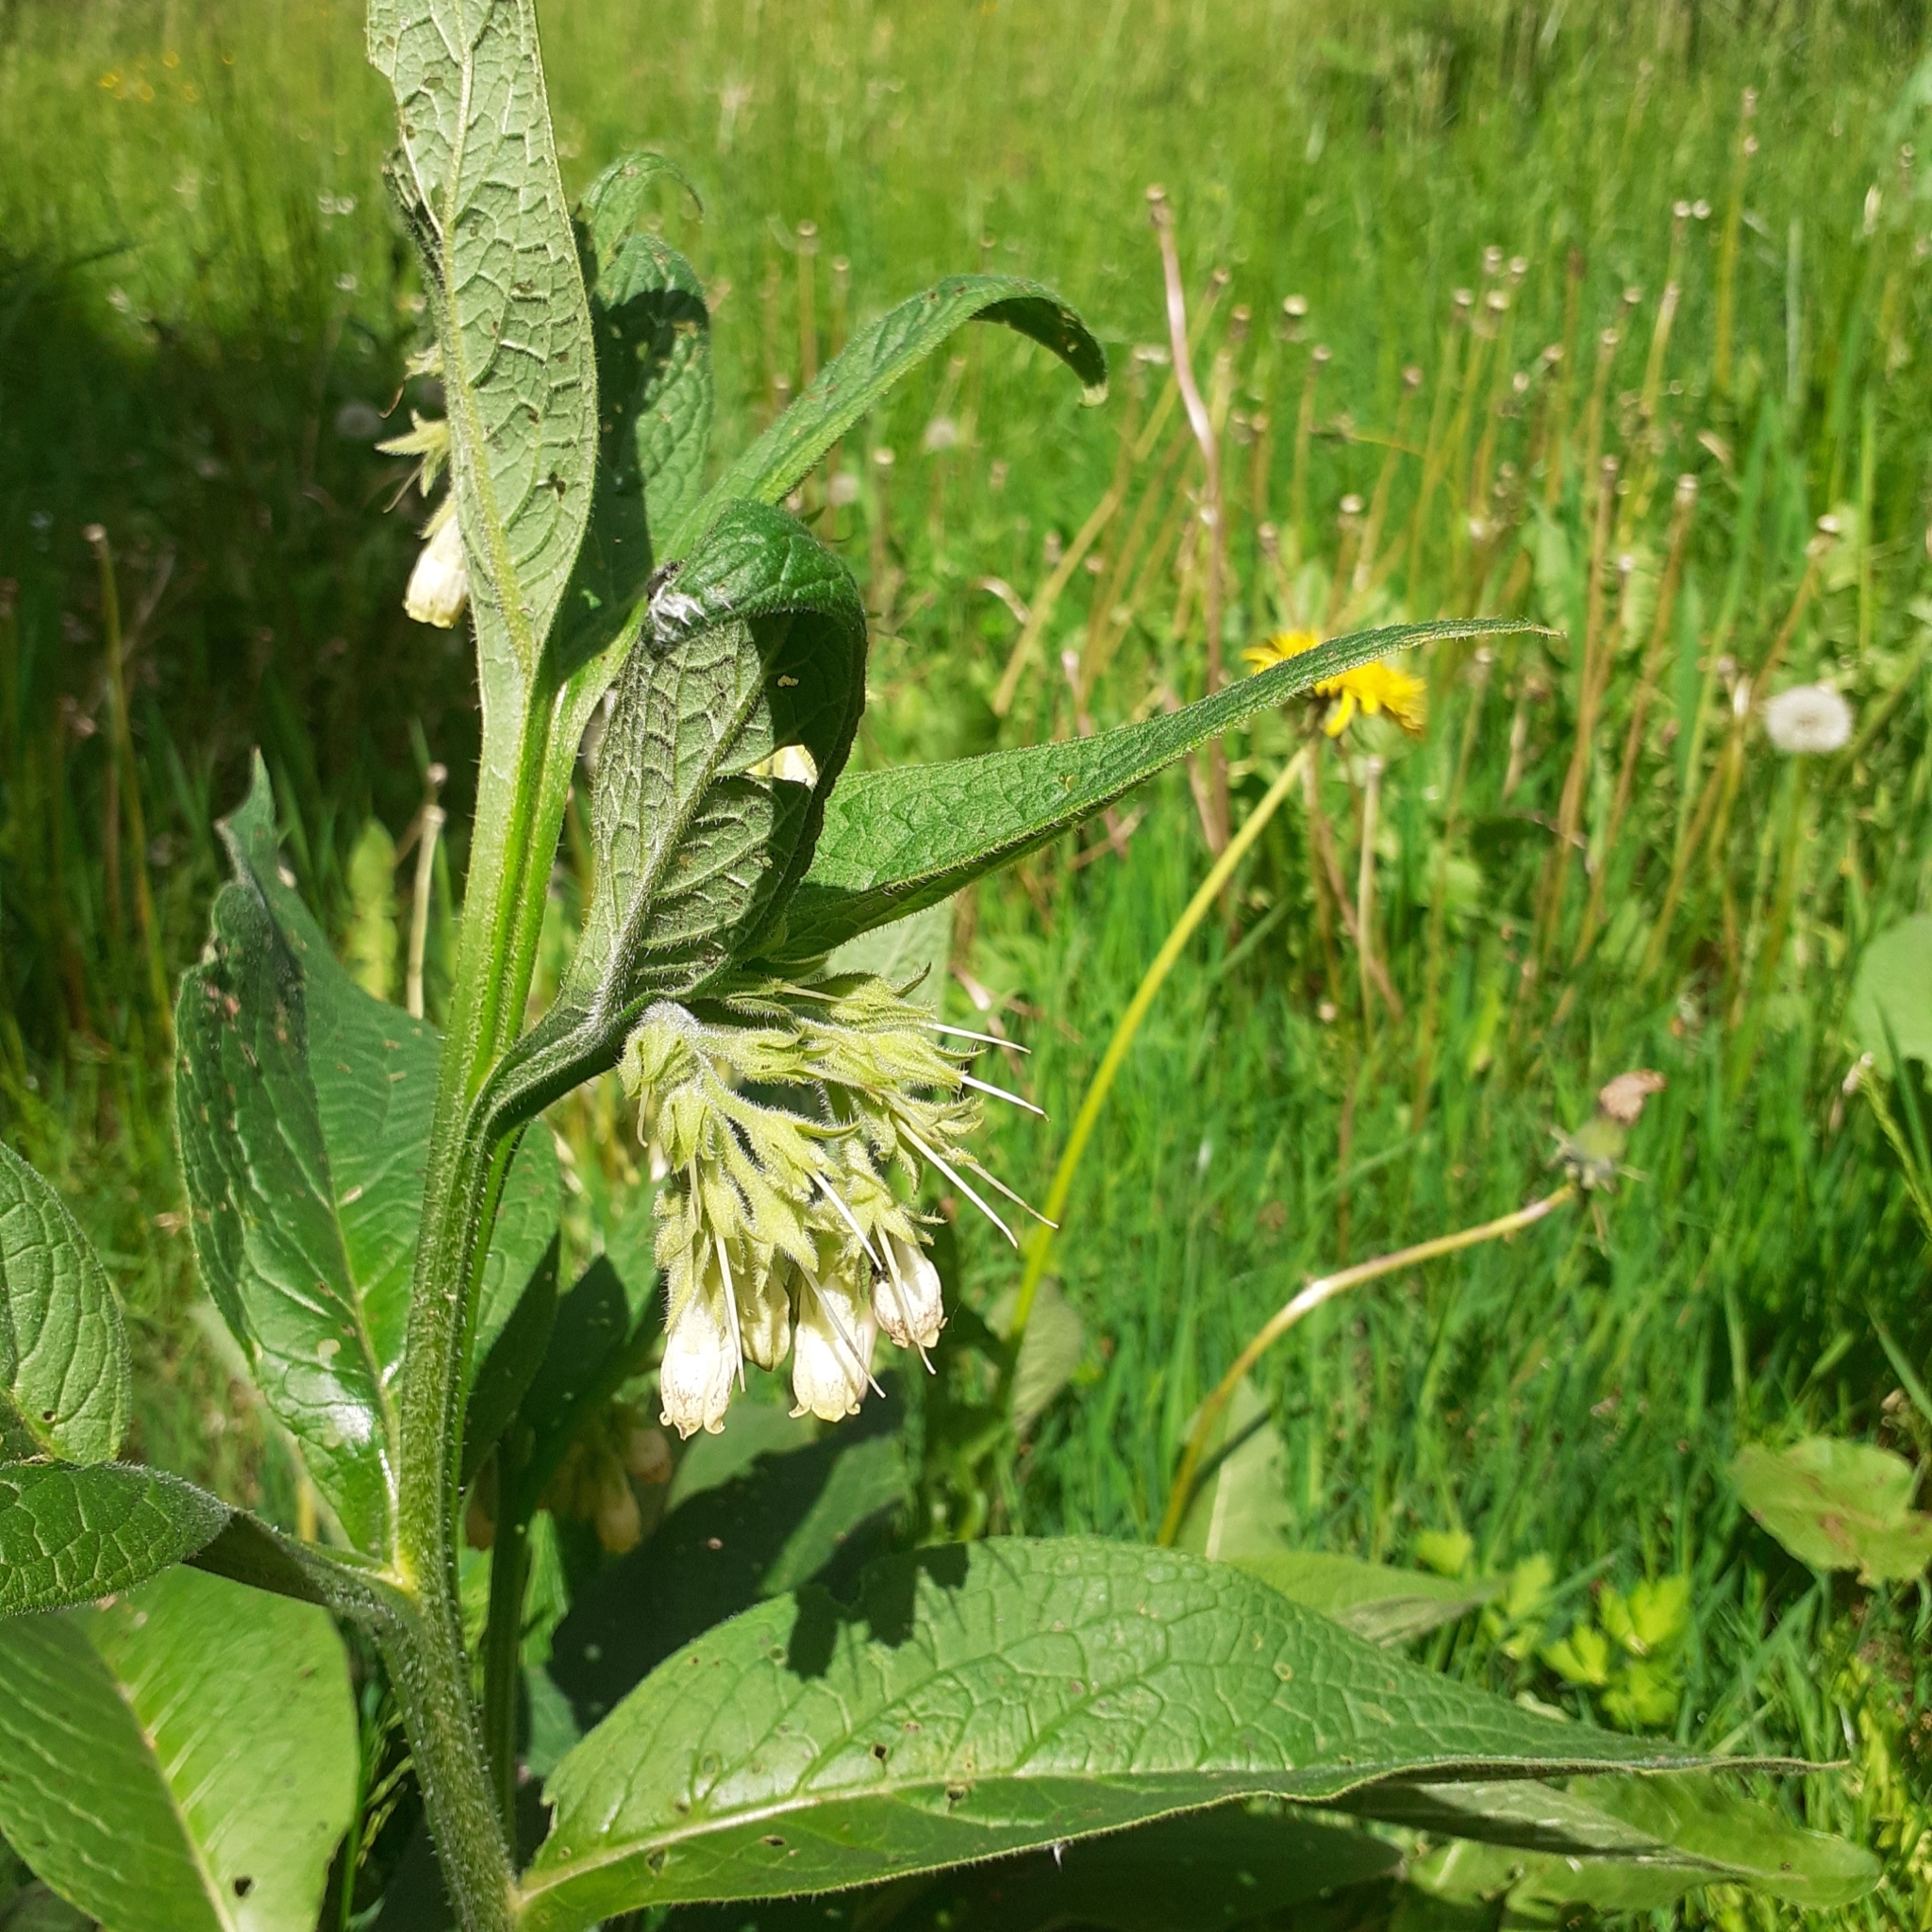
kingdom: Plantae
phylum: Tracheophyta
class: Magnoliopsida
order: Boraginales
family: Boraginaceae
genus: Symphytum
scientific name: Symphytum officinale
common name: Common comfrey
